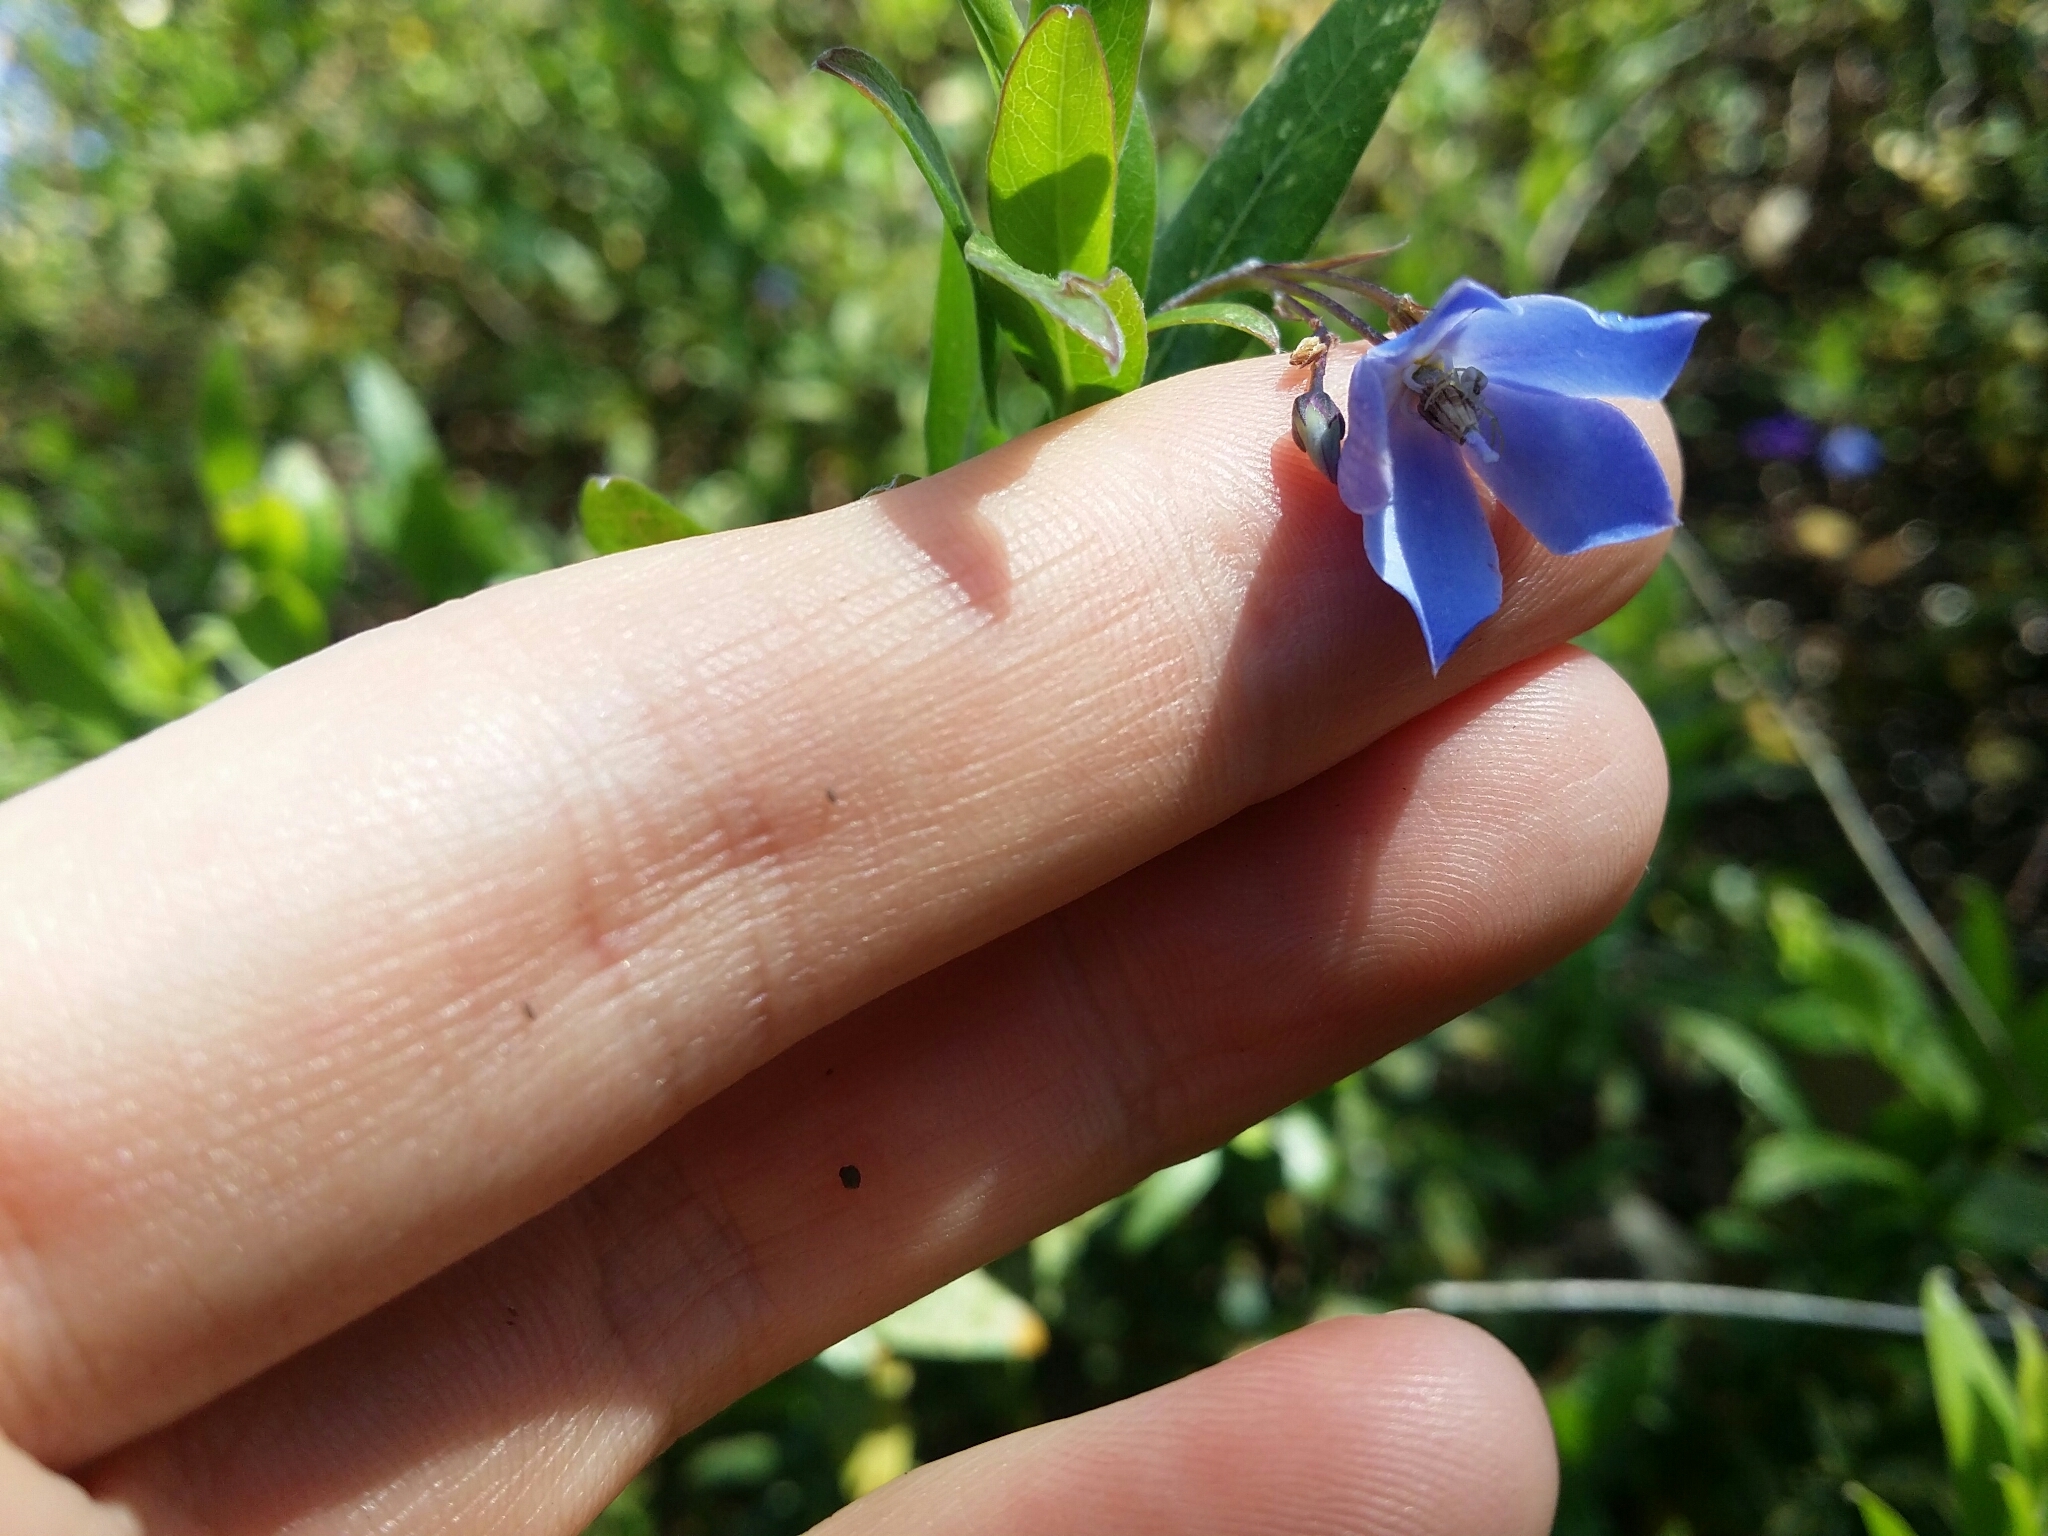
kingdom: Plantae
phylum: Tracheophyta
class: Magnoliopsida
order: Apiales
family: Pittosporaceae
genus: Billardiera
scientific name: Billardiera heterophylla
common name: Bluebell creeper
